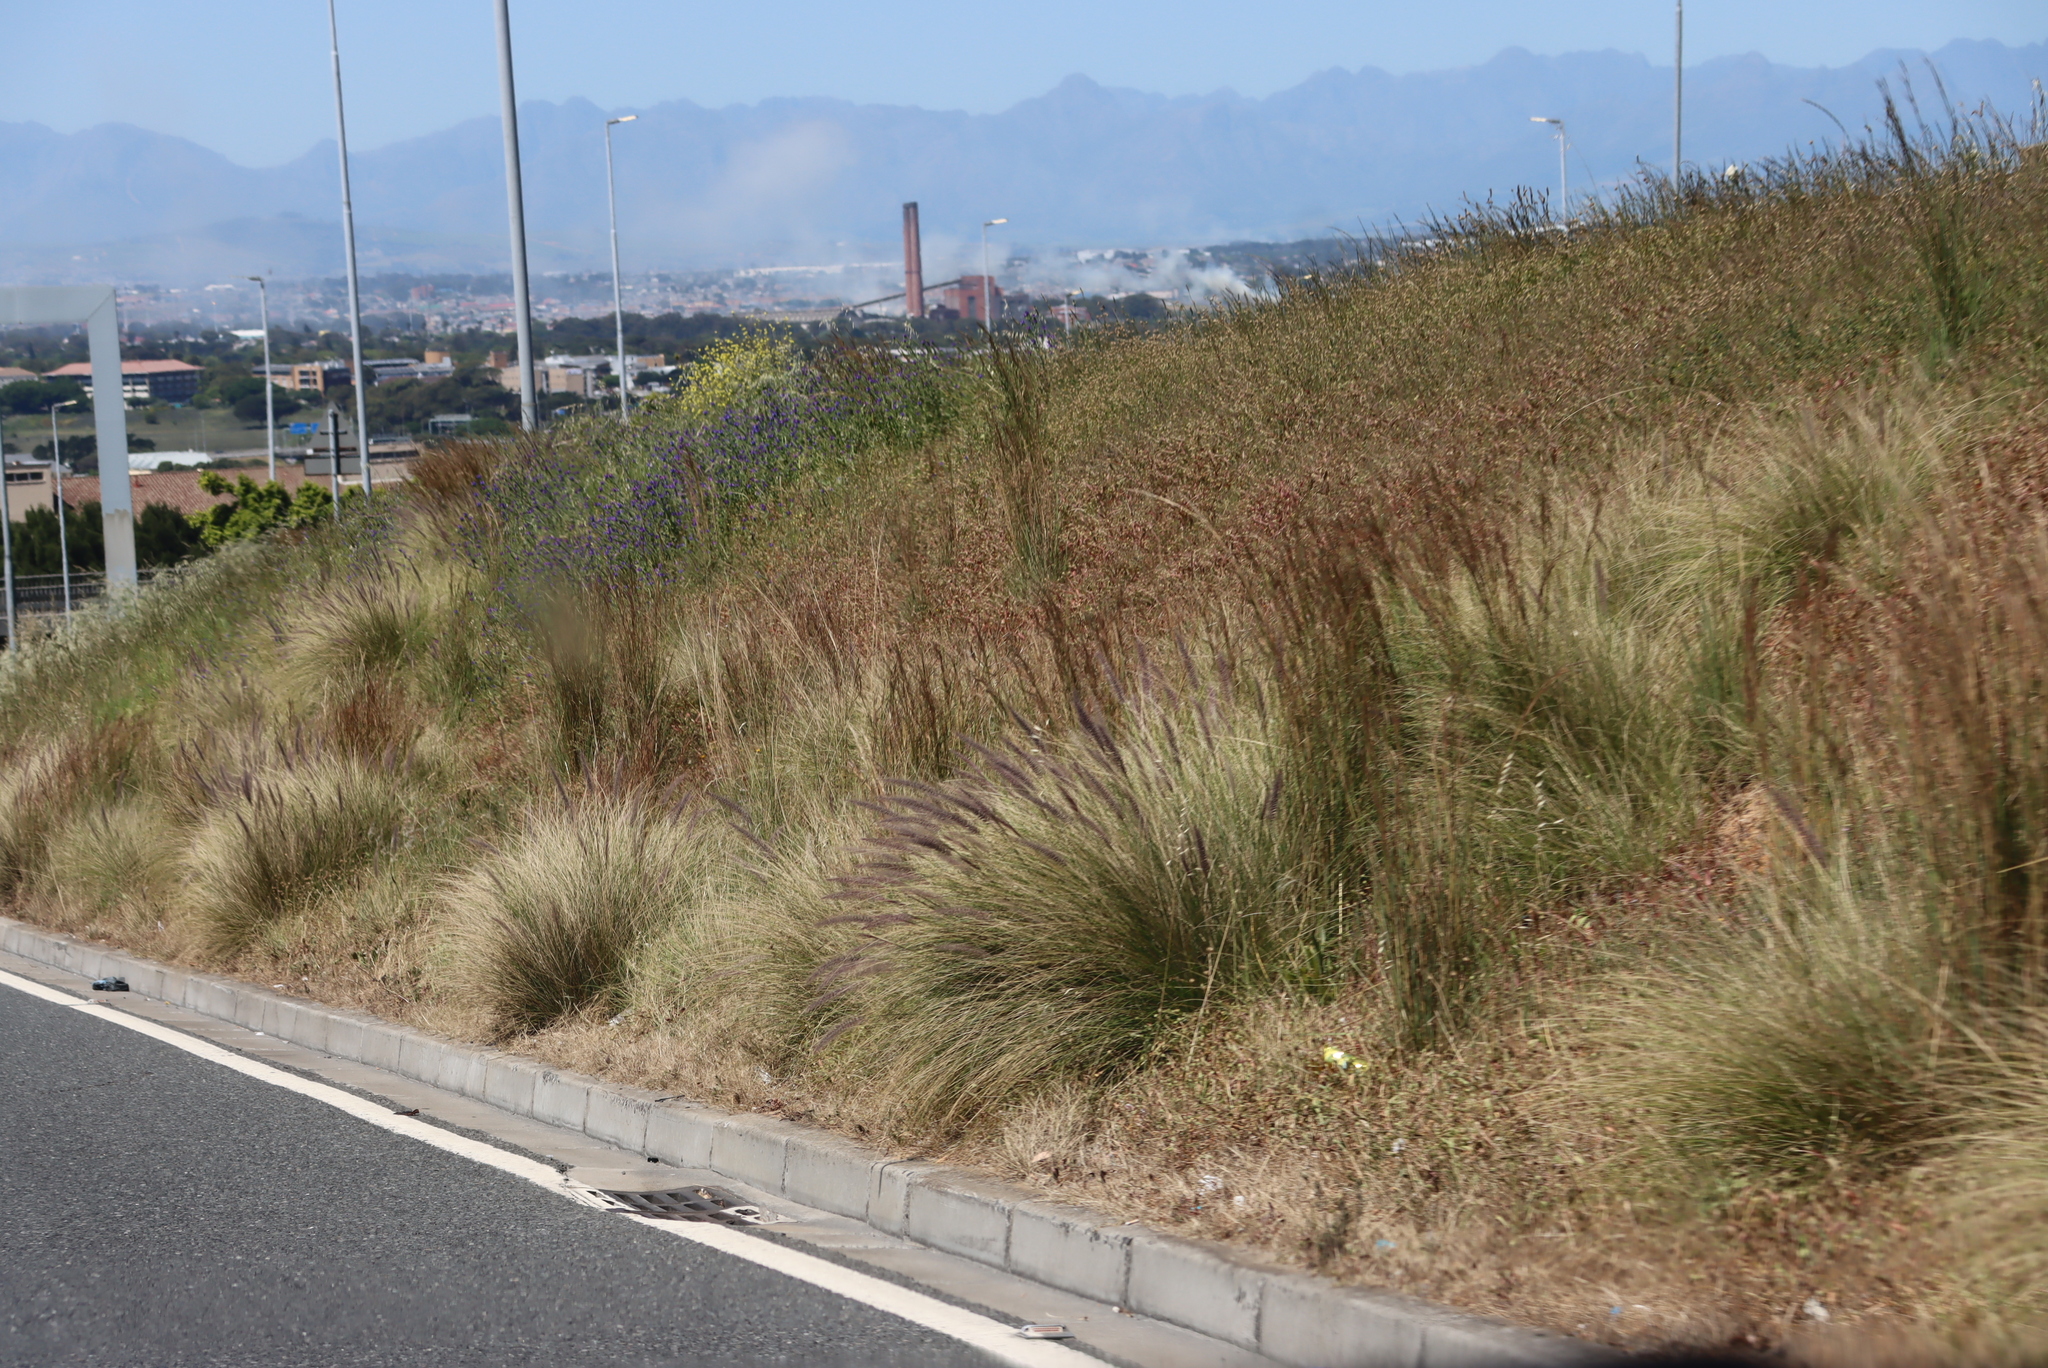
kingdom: Plantae
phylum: Tracheophyta
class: Liliopsida
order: Poales
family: Poaceae
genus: Cenchrus
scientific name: Cenchrus setaceus
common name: Crimson fountaingrass
